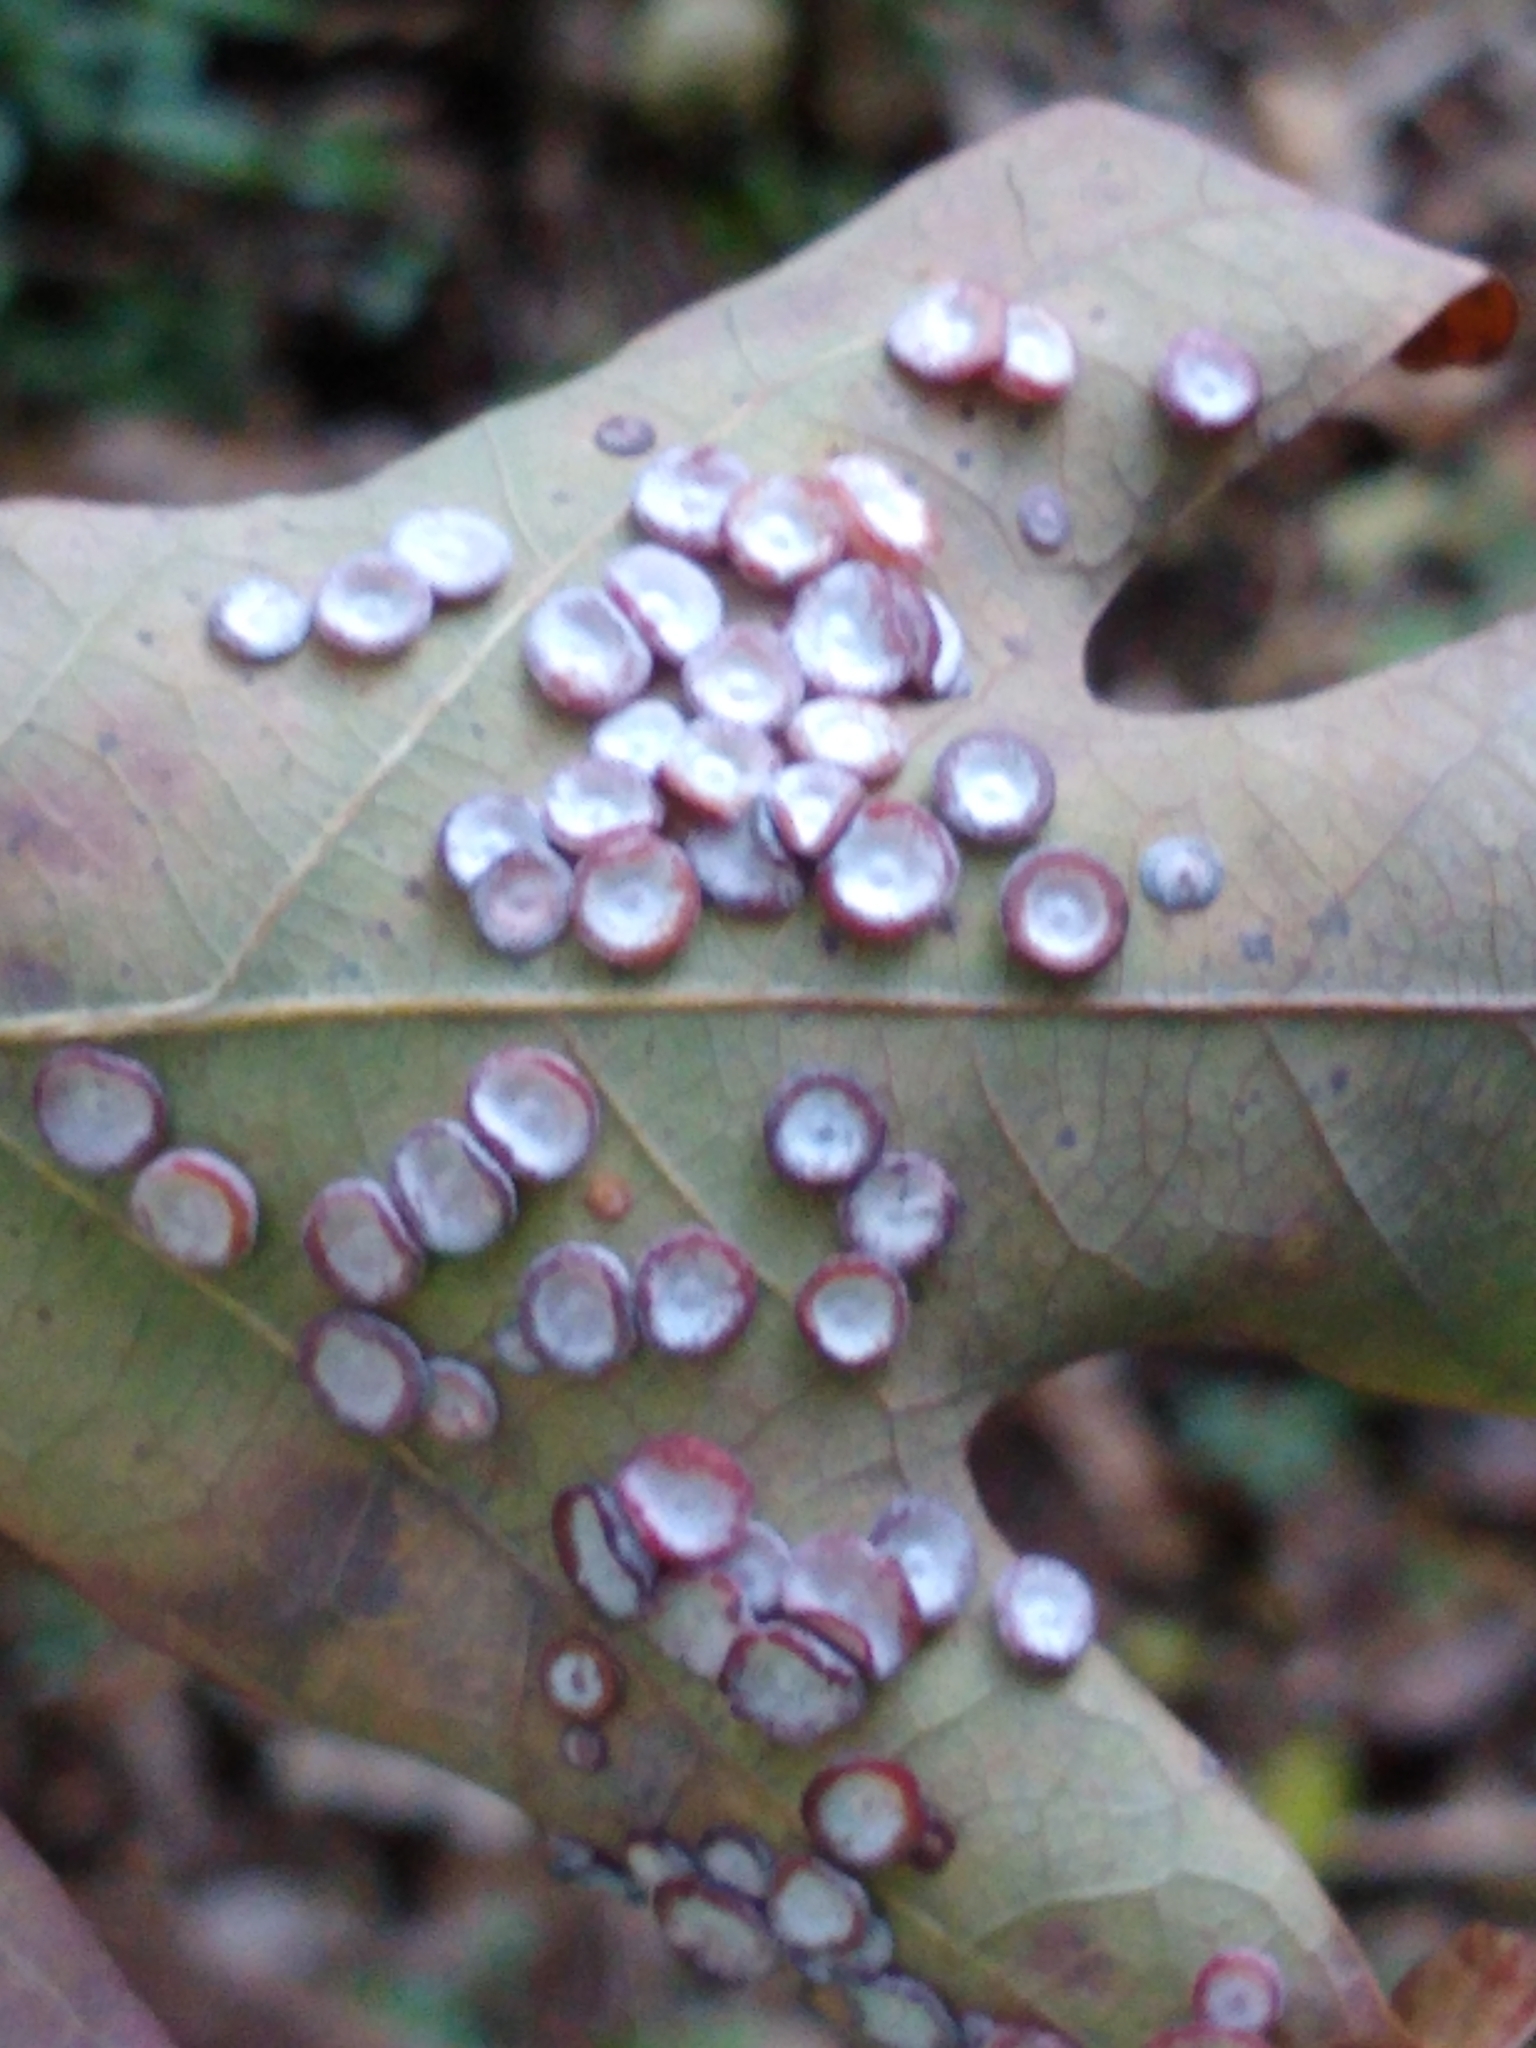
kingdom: Animalia
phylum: Arthropoda
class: Insecta
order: Hymenoptera
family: Cynipidae
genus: Phylloteras
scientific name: Phylloteras poculum
